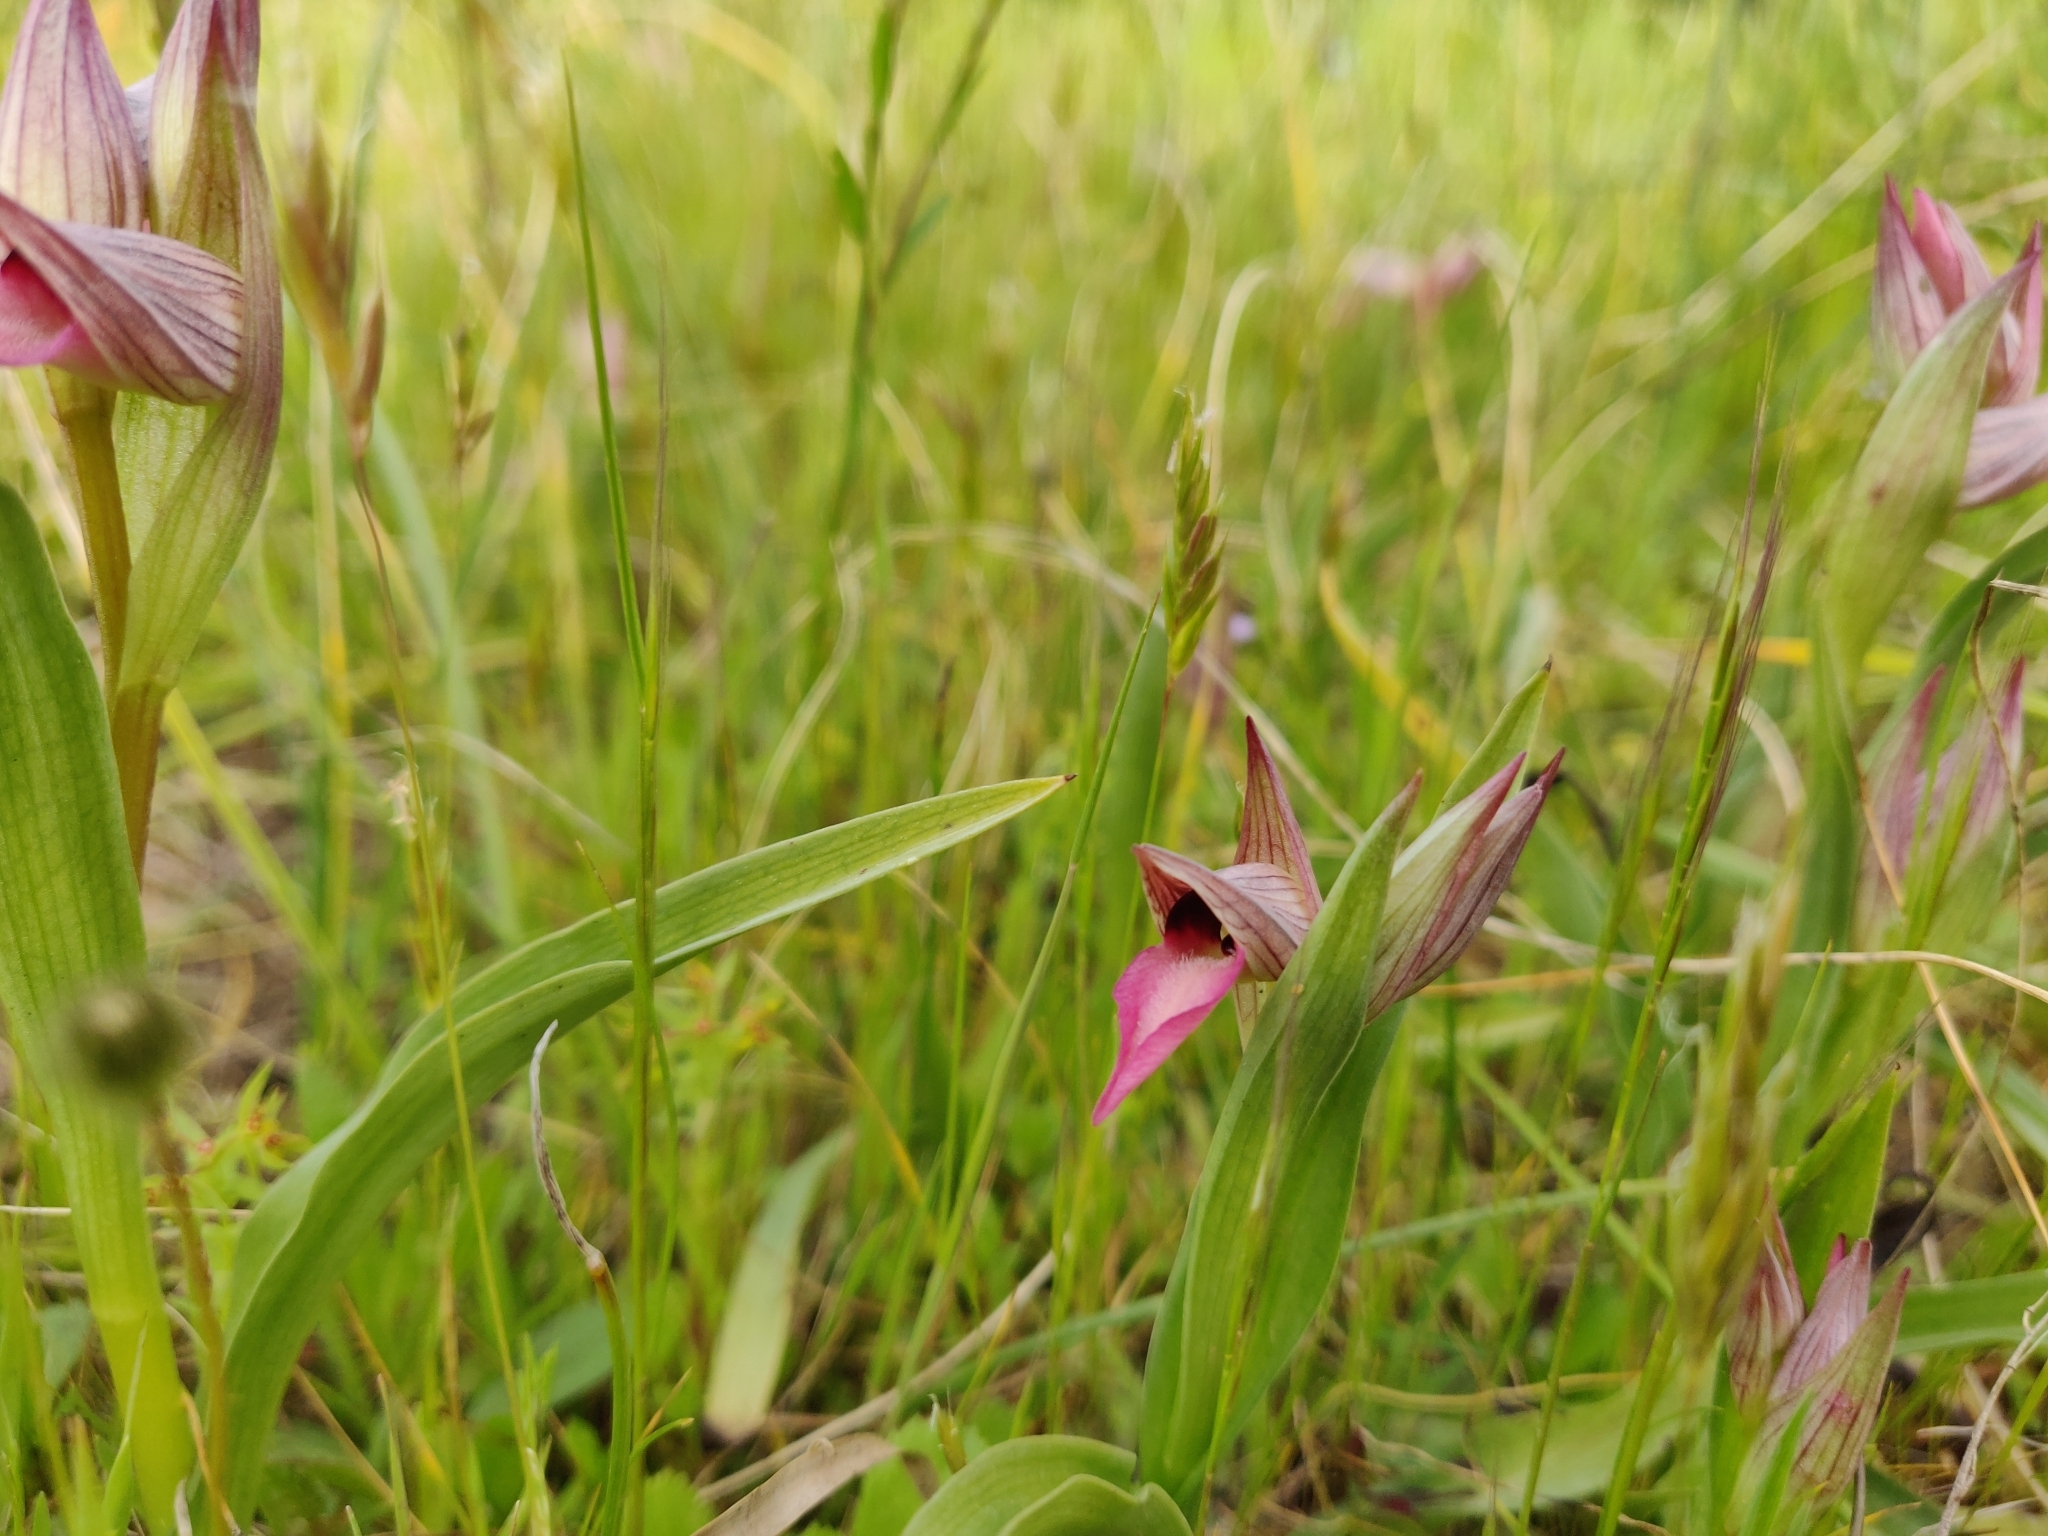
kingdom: Plantae
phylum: Tracheophyta
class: Liliopsida
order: Asparagales
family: Orchidaceae
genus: Serapias
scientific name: Serapias lingua
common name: Tongue-orchid
